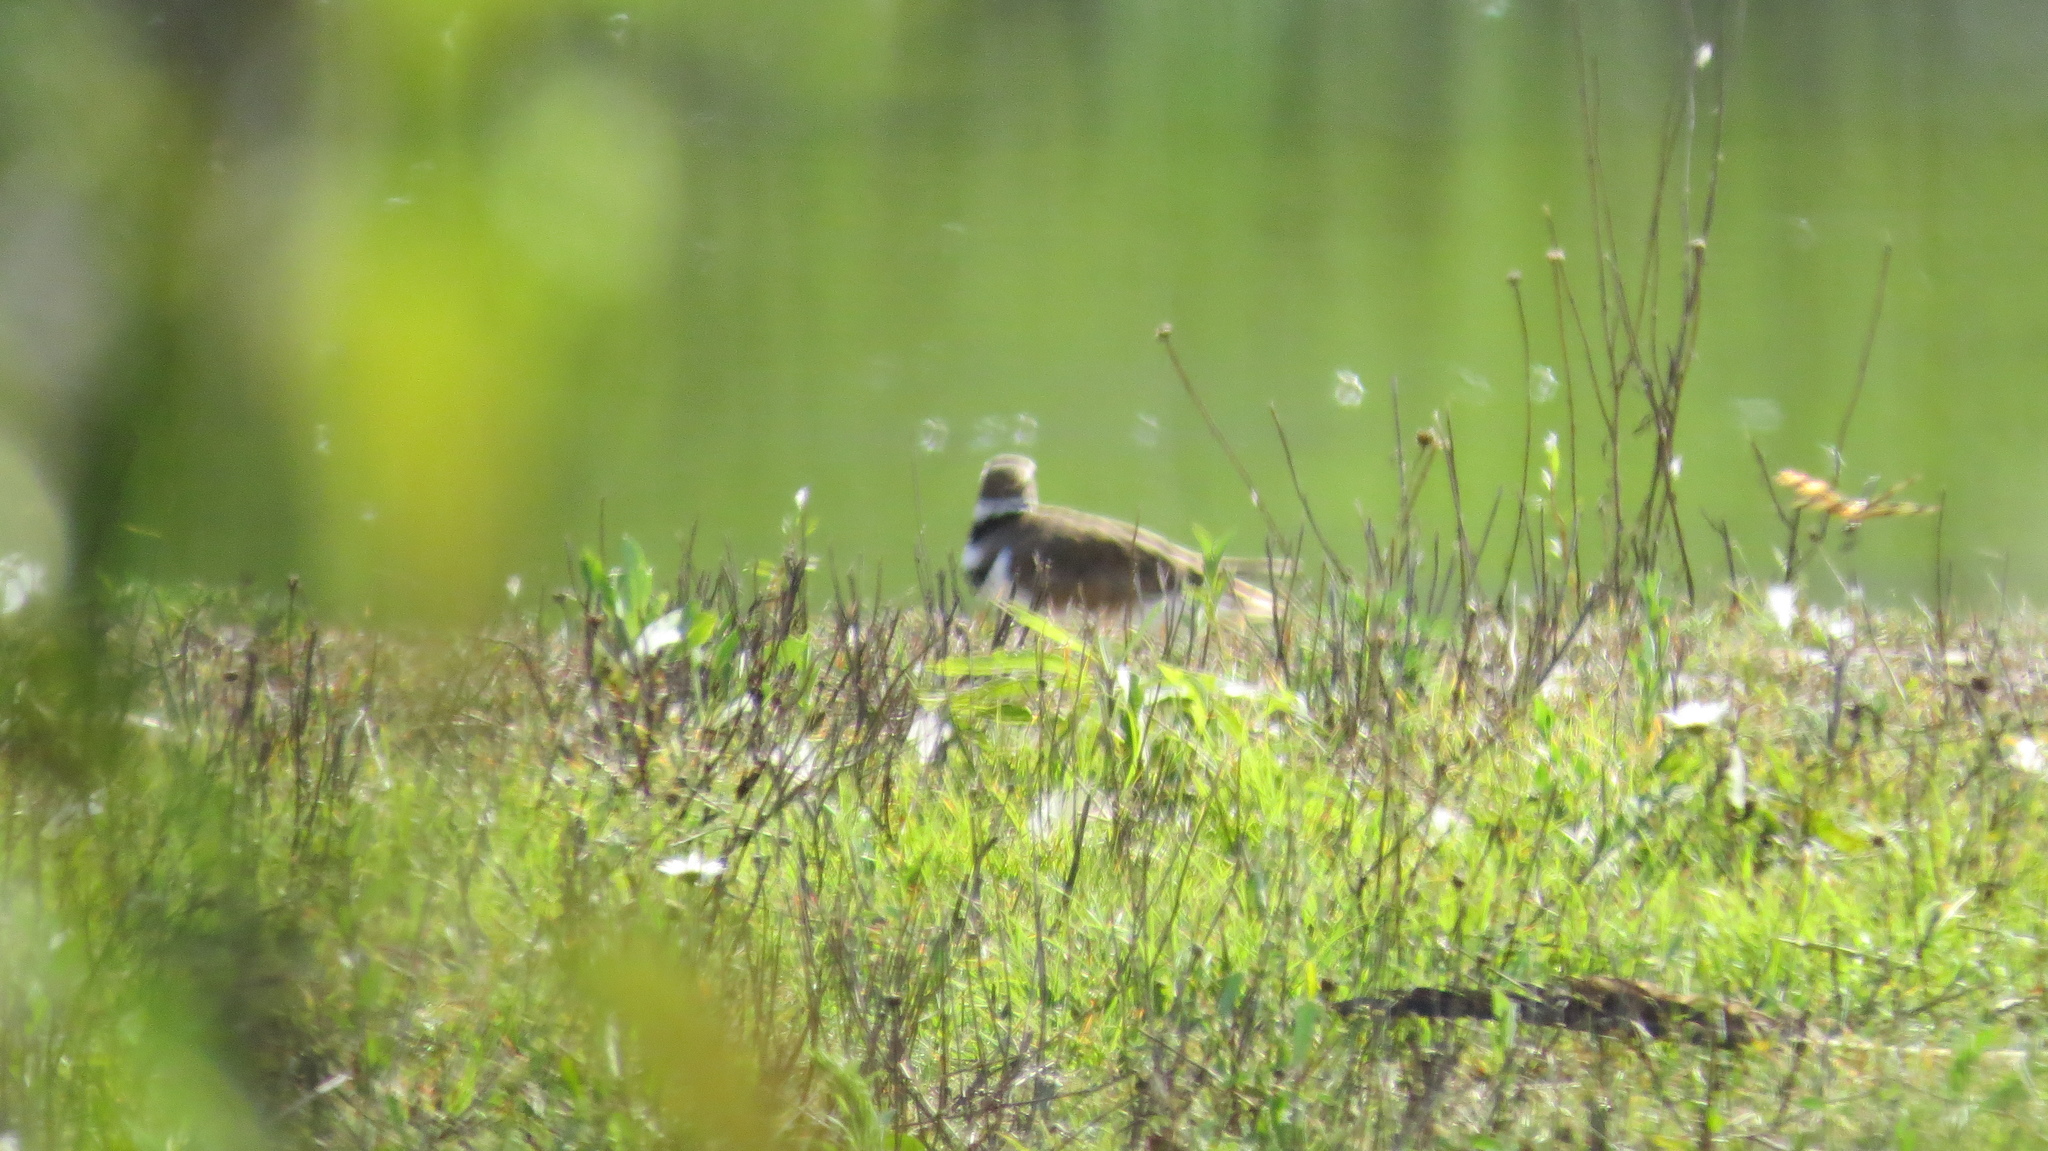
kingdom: Animalia
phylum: Chordata
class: Aves
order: Charadriiformes
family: Charadriidae
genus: Charadrius
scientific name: Charadrius vociferus
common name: Killdeer
